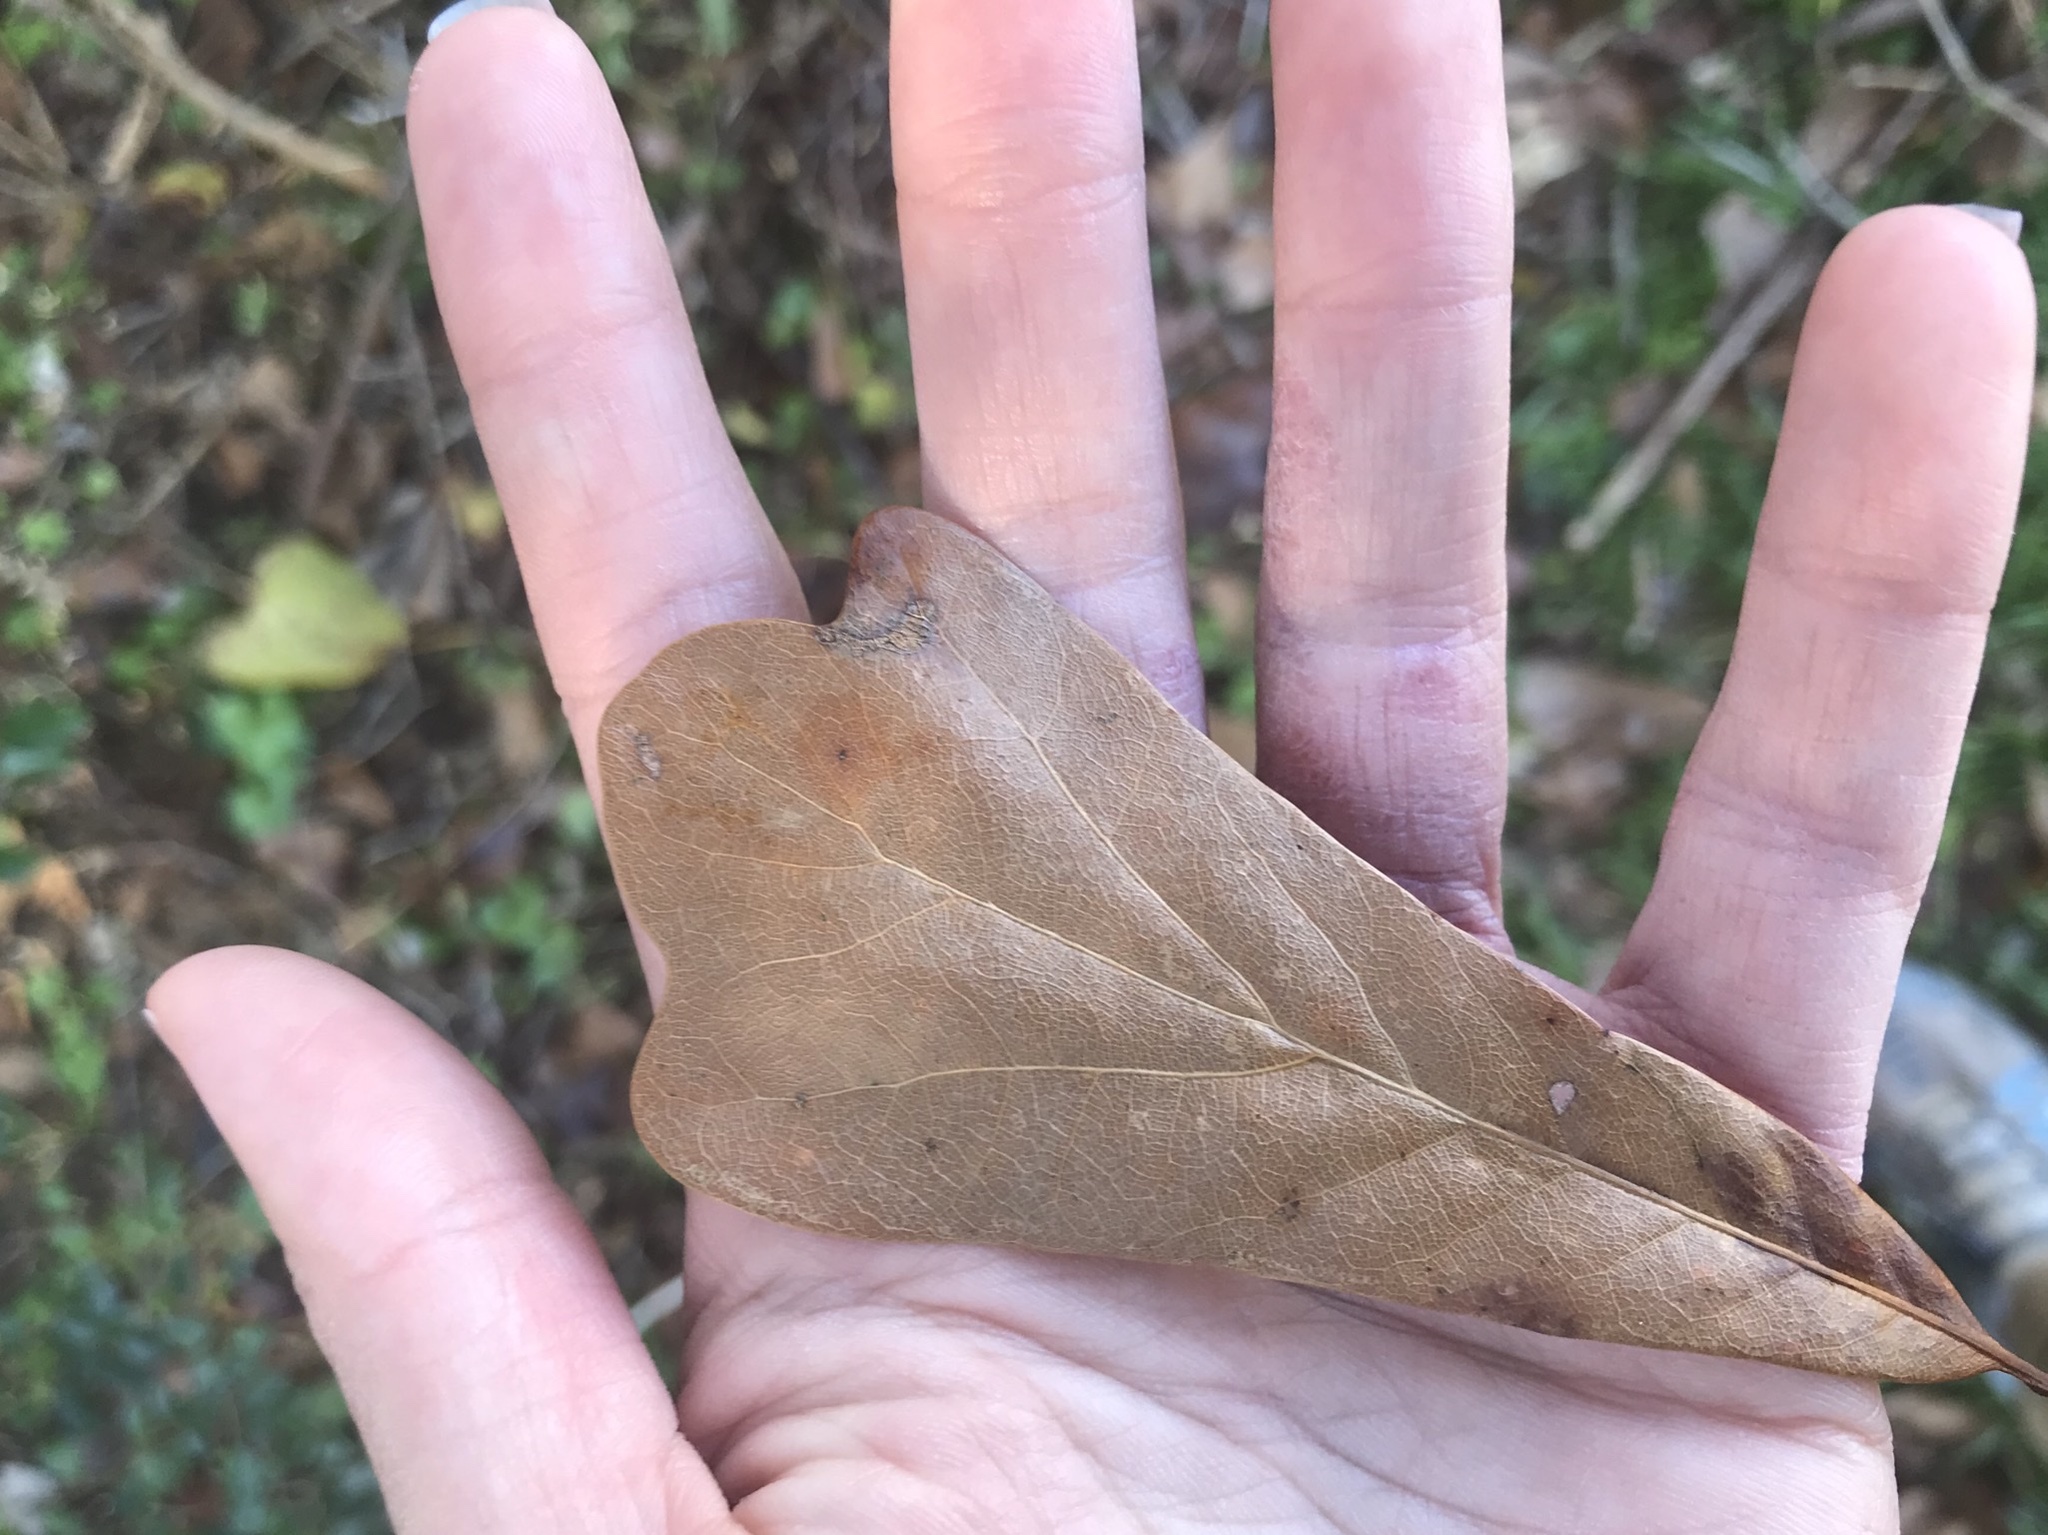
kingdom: Plantae
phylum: Tracheophyta
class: Magnoliopsida
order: Fagales
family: Fagaceae
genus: Quercus
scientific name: Quercus nigra
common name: Water oak
